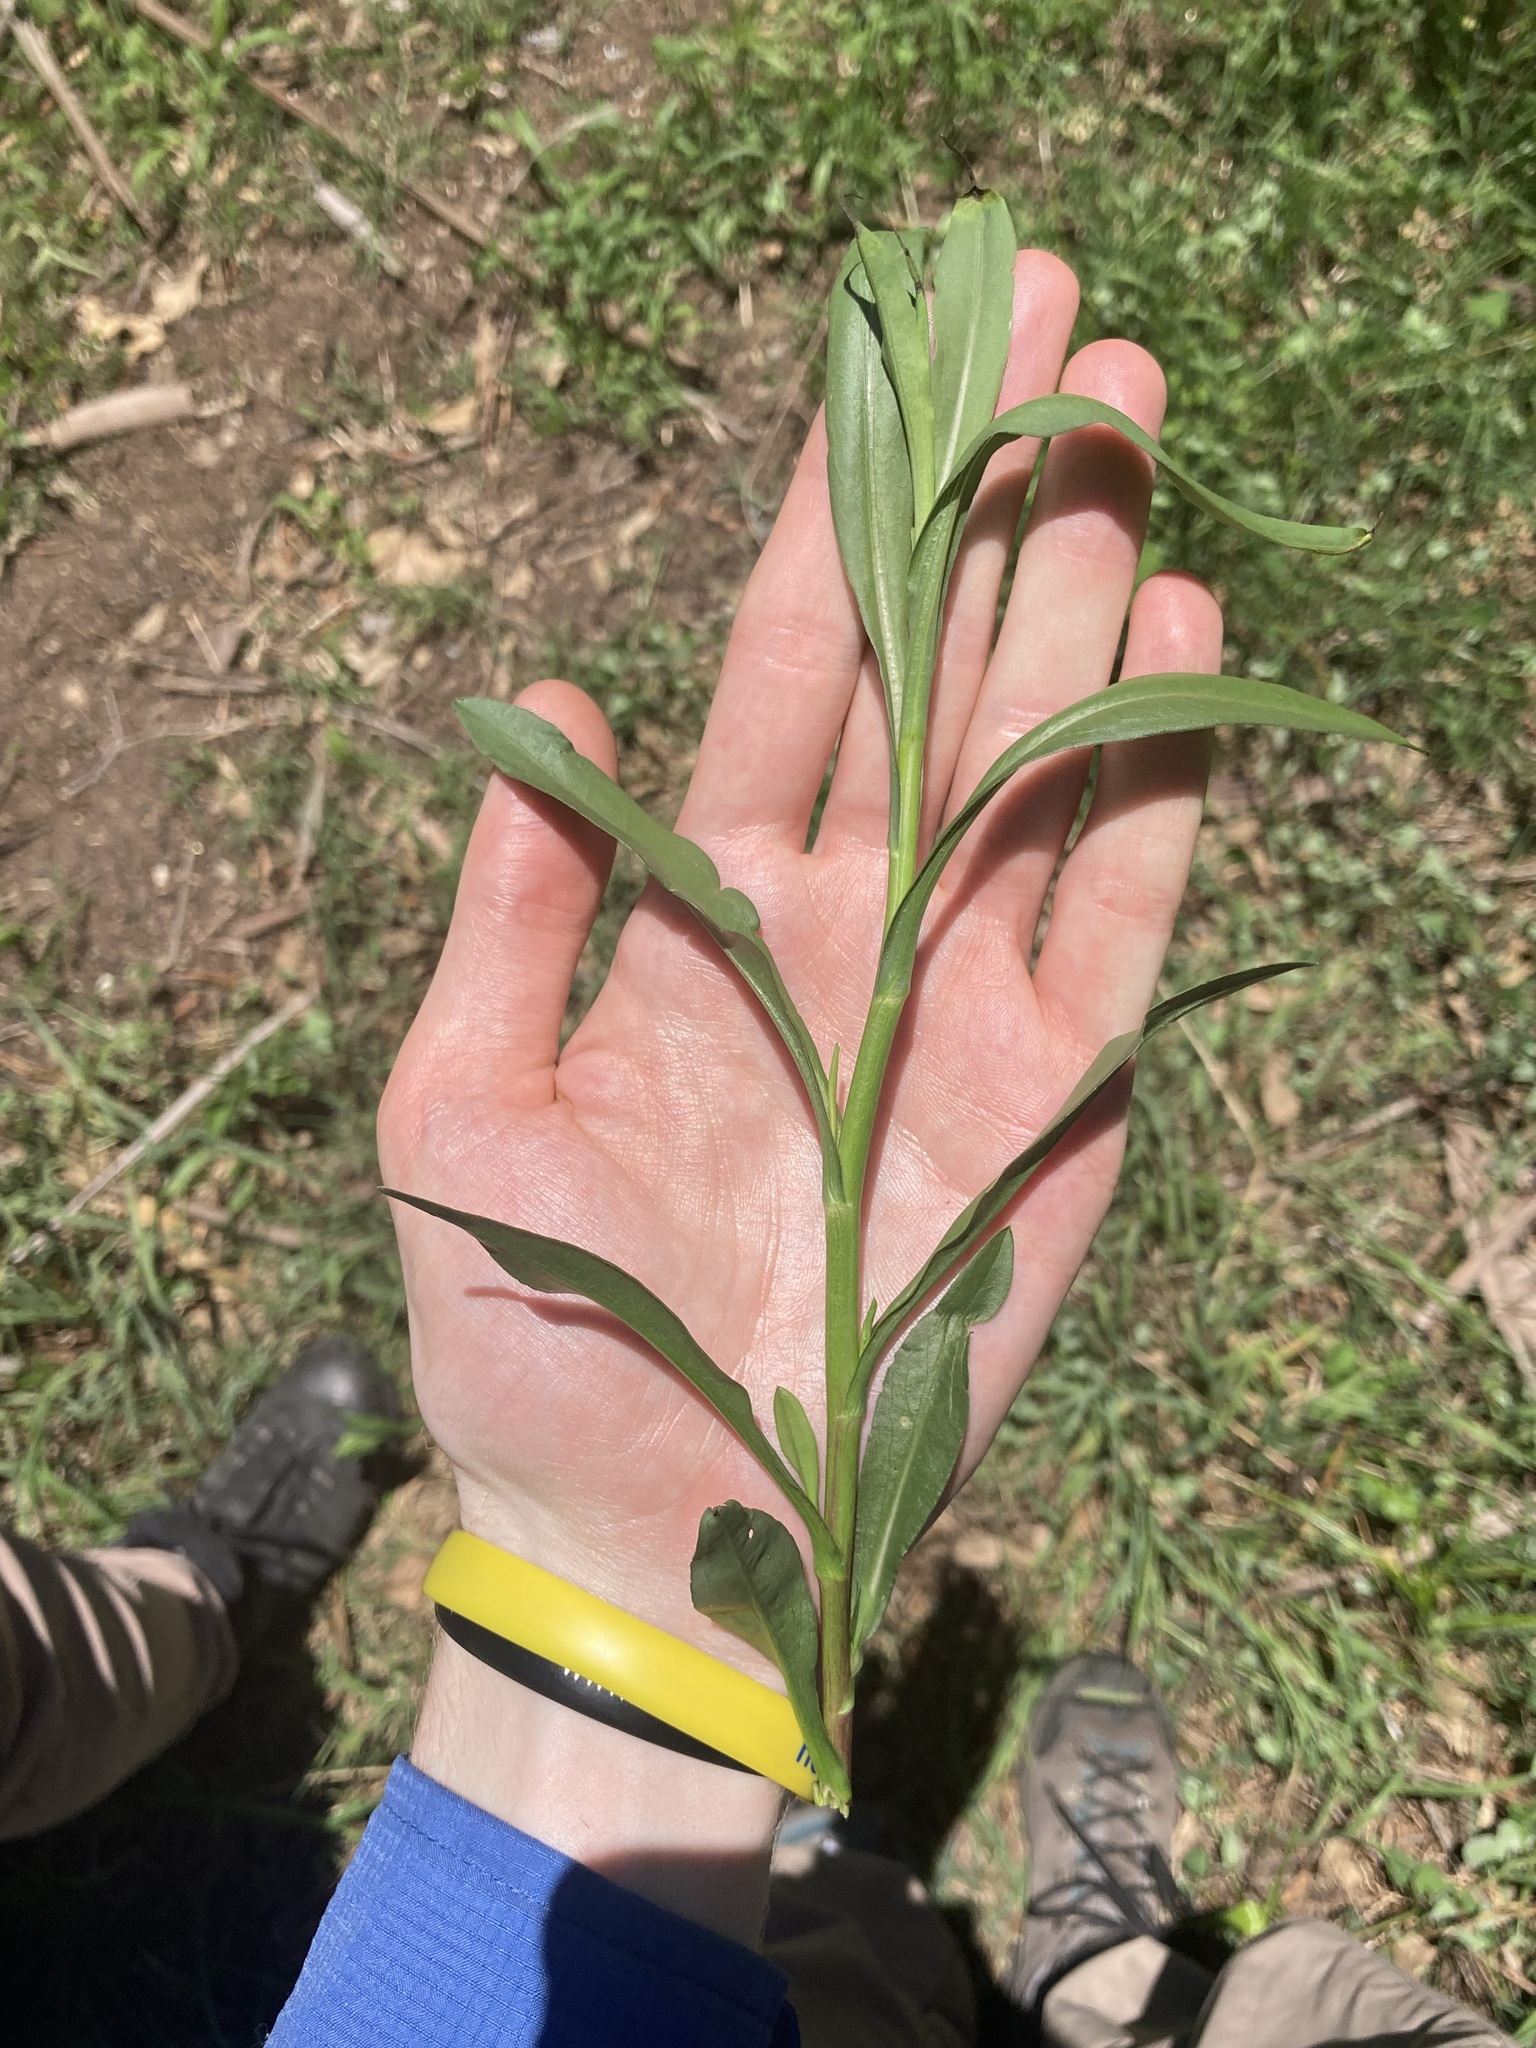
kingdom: Plantae
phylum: Tracheophyta
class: Magnoliopsida
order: Asterales
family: Asteraceae
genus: Symphyotrichum
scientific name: Symphyotrichum subulatum
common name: Annual saltmarsh aster
